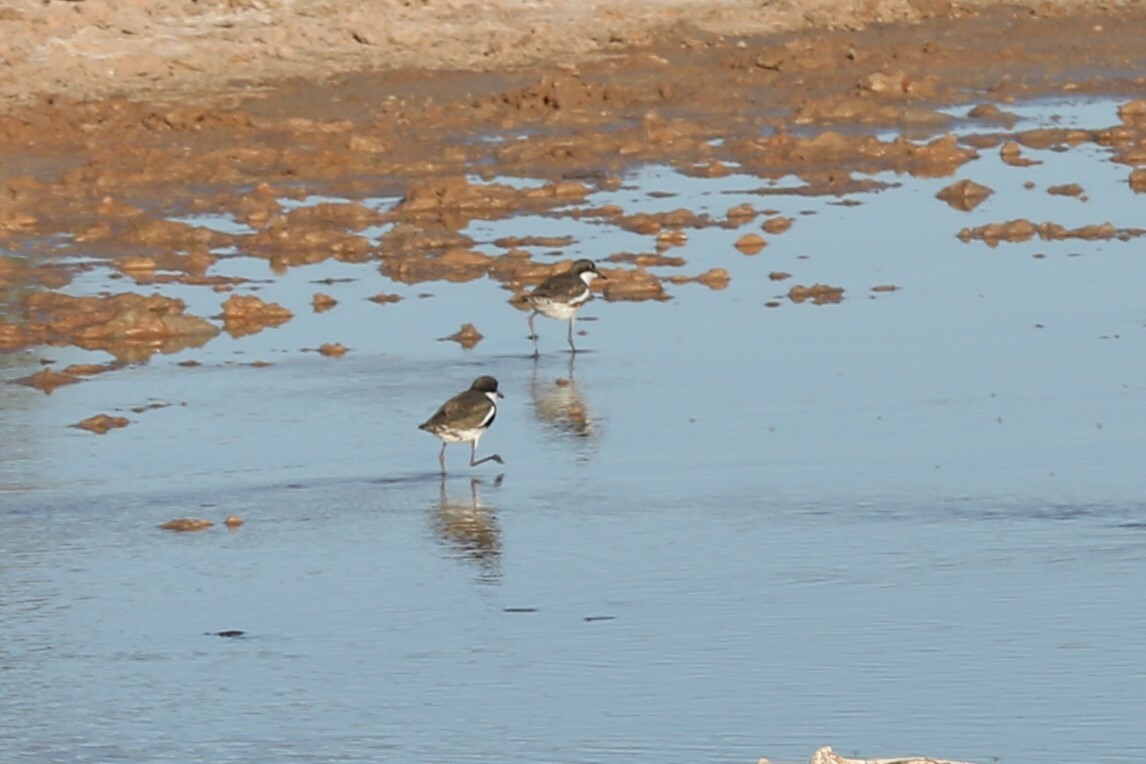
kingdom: Animalia
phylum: Chordata
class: Aves
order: Charadriiformes
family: Charadriidae
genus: Erythrogonys
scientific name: Erythrogonys cinctus
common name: Red-kneed dotterel
